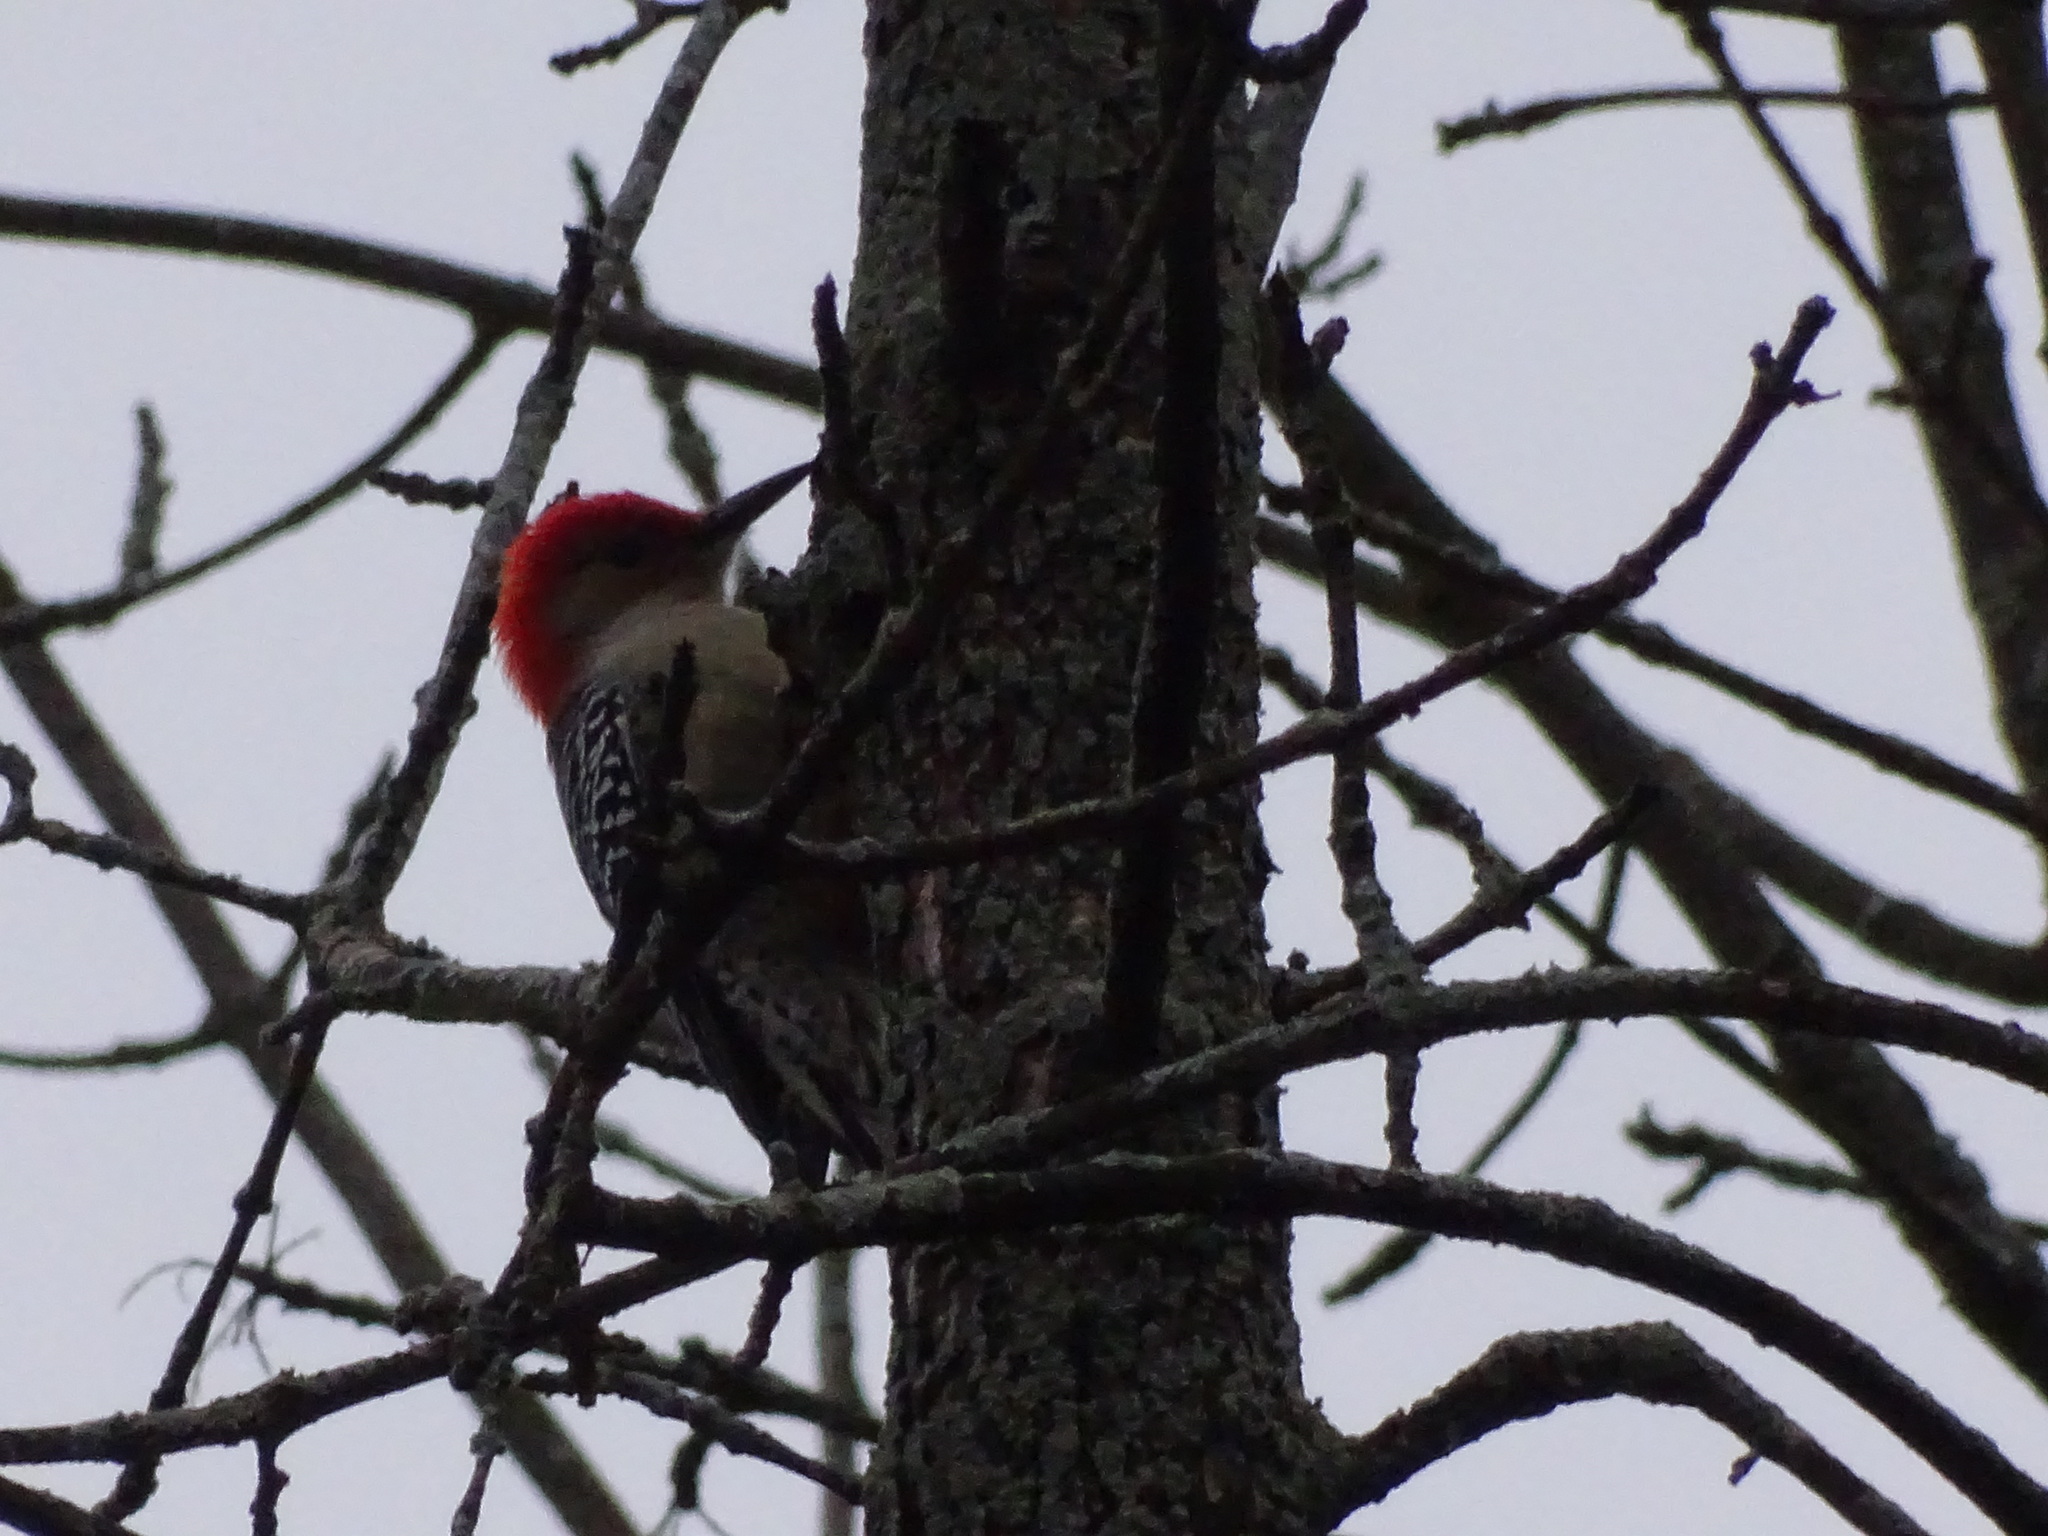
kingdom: Animalia
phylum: Chordata
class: Aves
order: Piciformes
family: Picidae
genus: Melanerpes
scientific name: Melanerpes carolinus
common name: Red-bellied woodpecker
